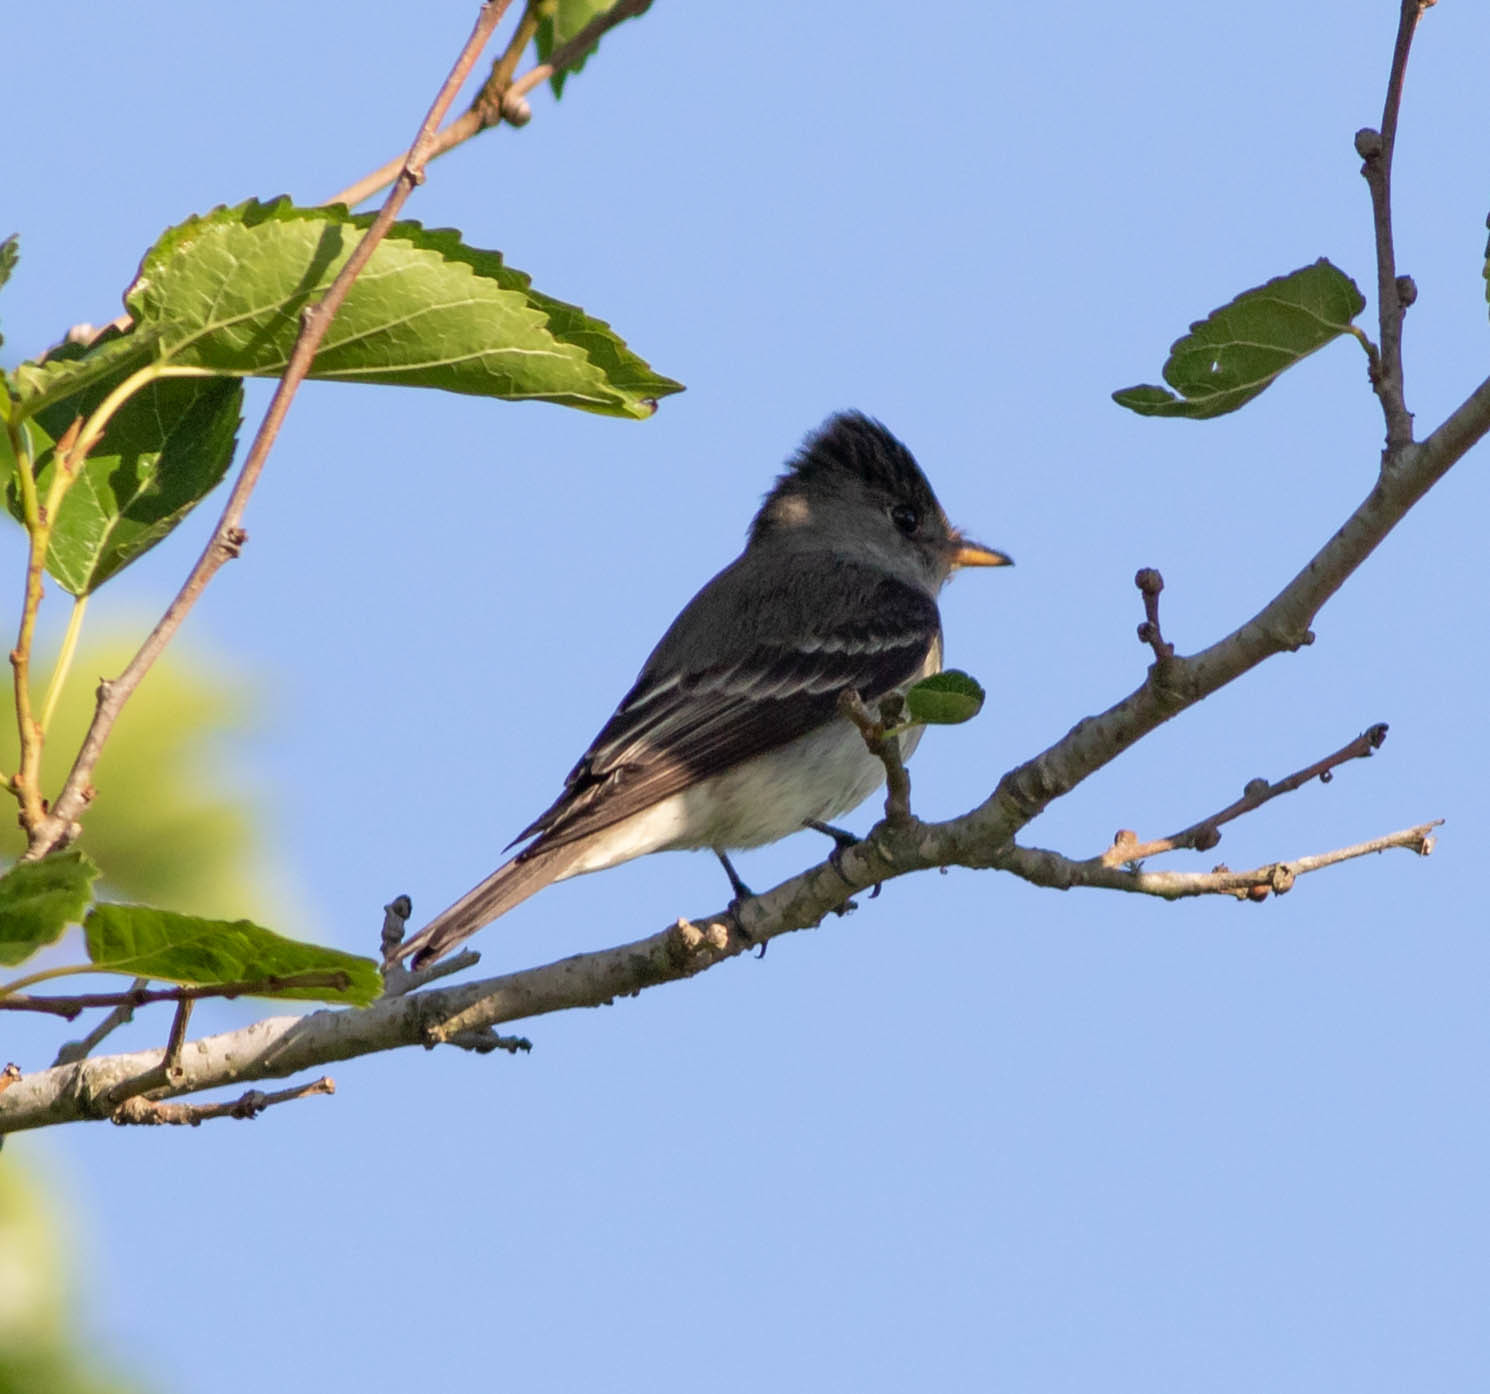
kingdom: Animalia
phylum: Chordata
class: Aves
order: Passeriformes
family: Tyrannidae
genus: Contopus
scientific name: Contopus virens
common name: Eastern wood-pewee
